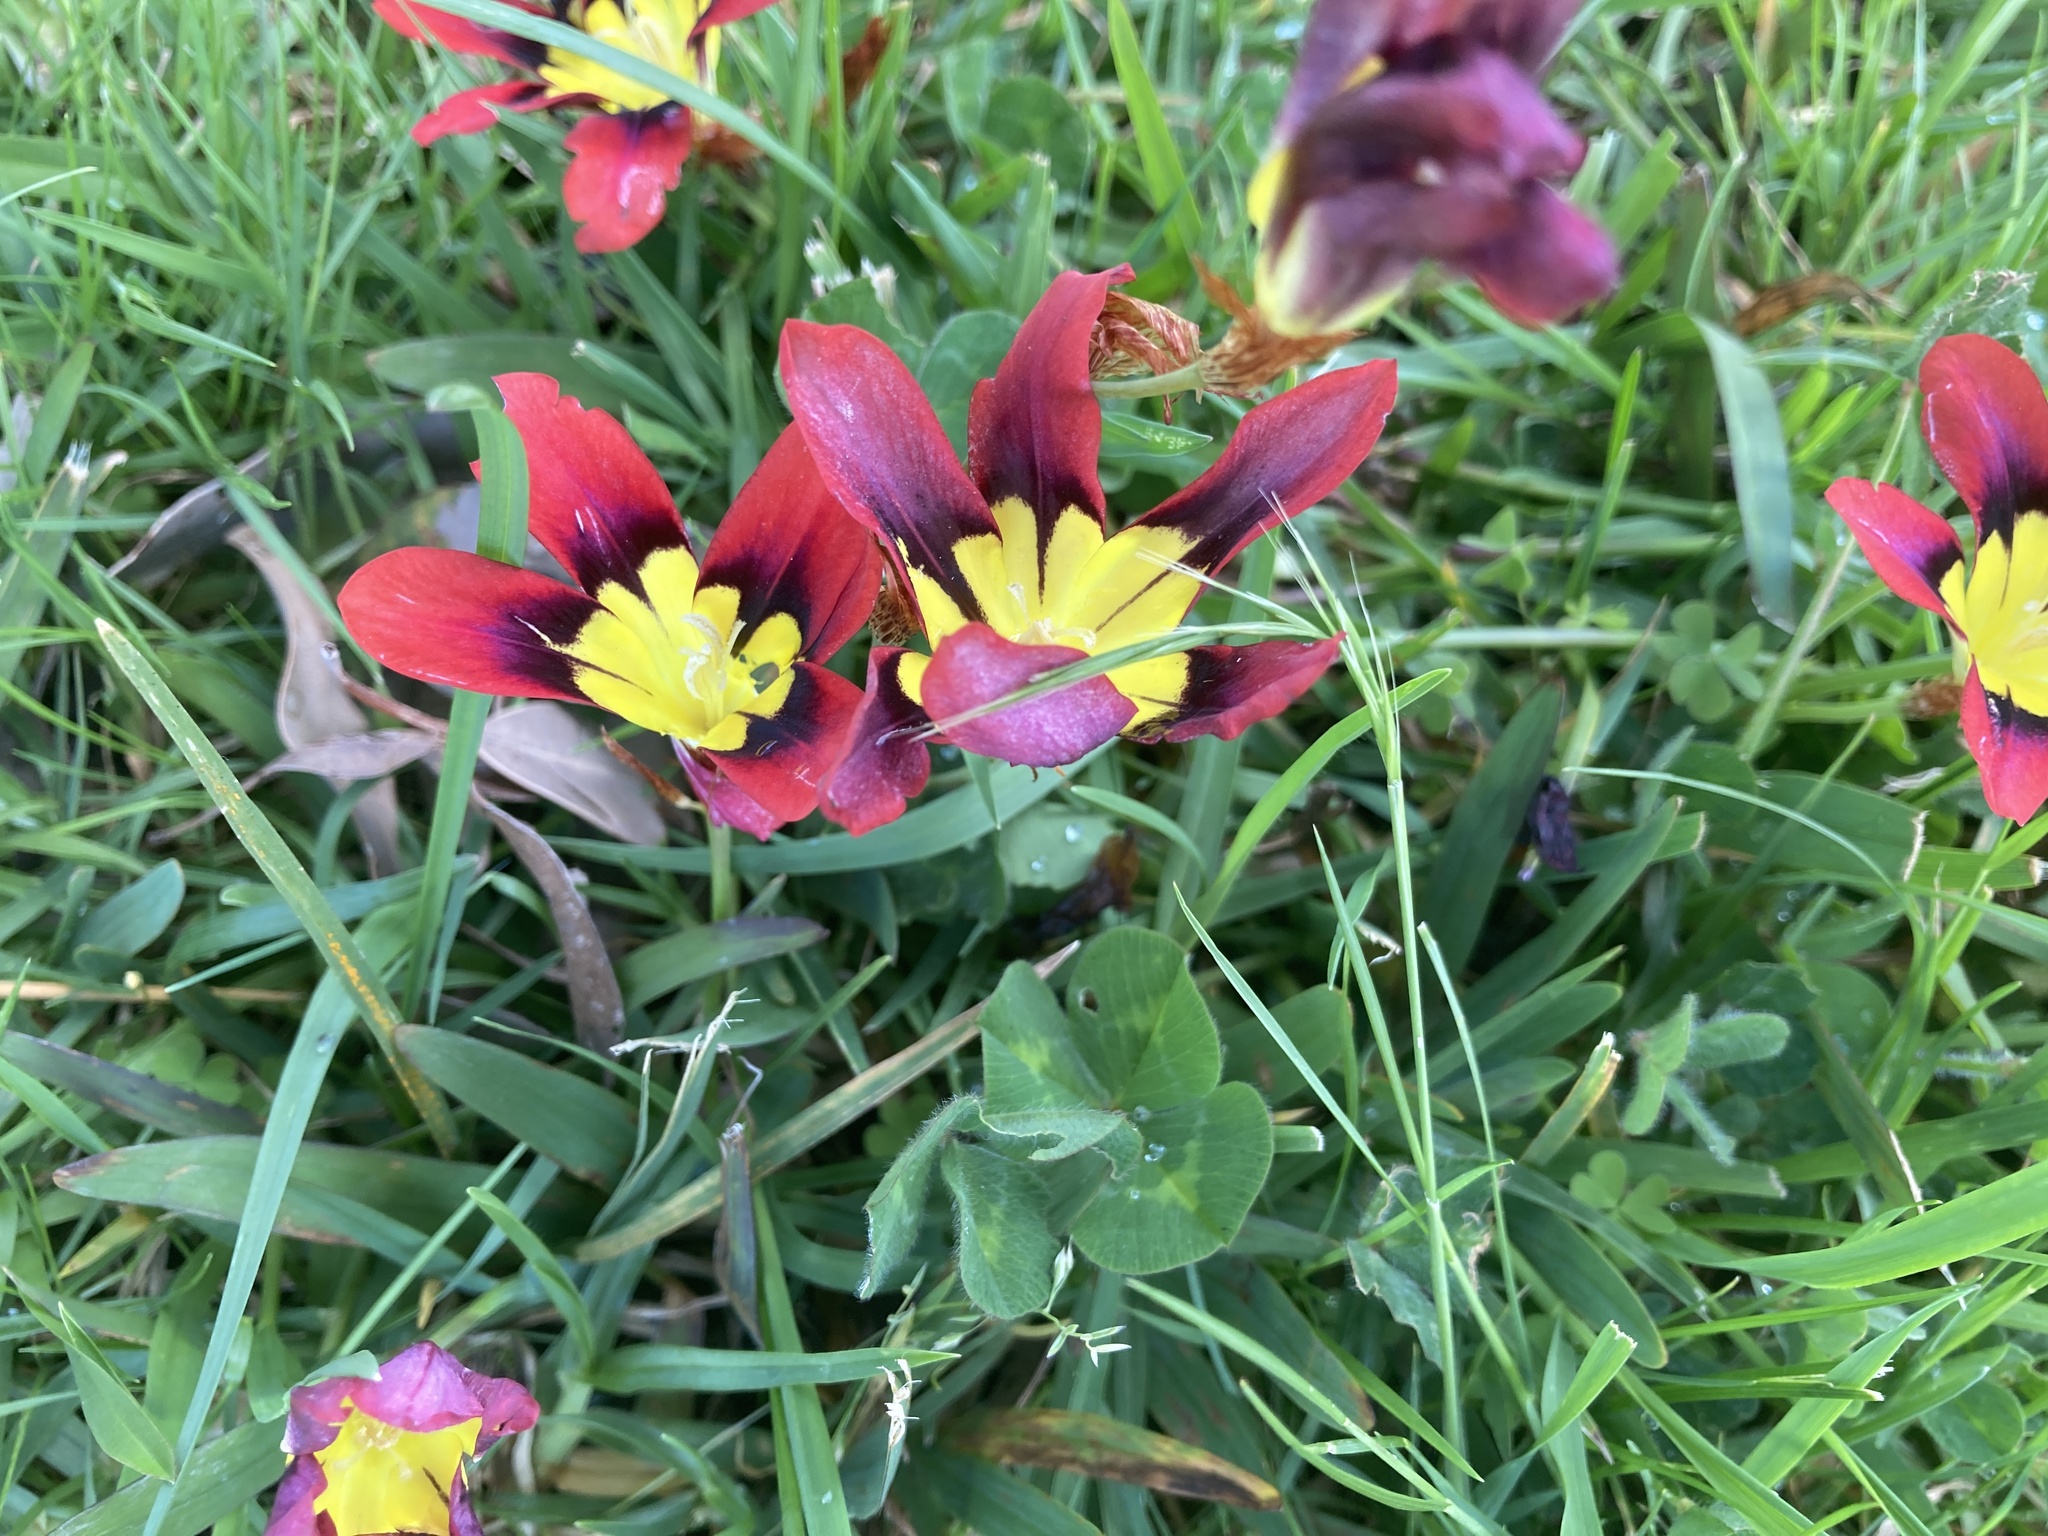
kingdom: Plantae
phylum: Tracheophyta
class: Liliopsida
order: Asparagales
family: Iridaceae
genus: Sparaxis
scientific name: Sparaxis tricolor
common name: Wandflower
